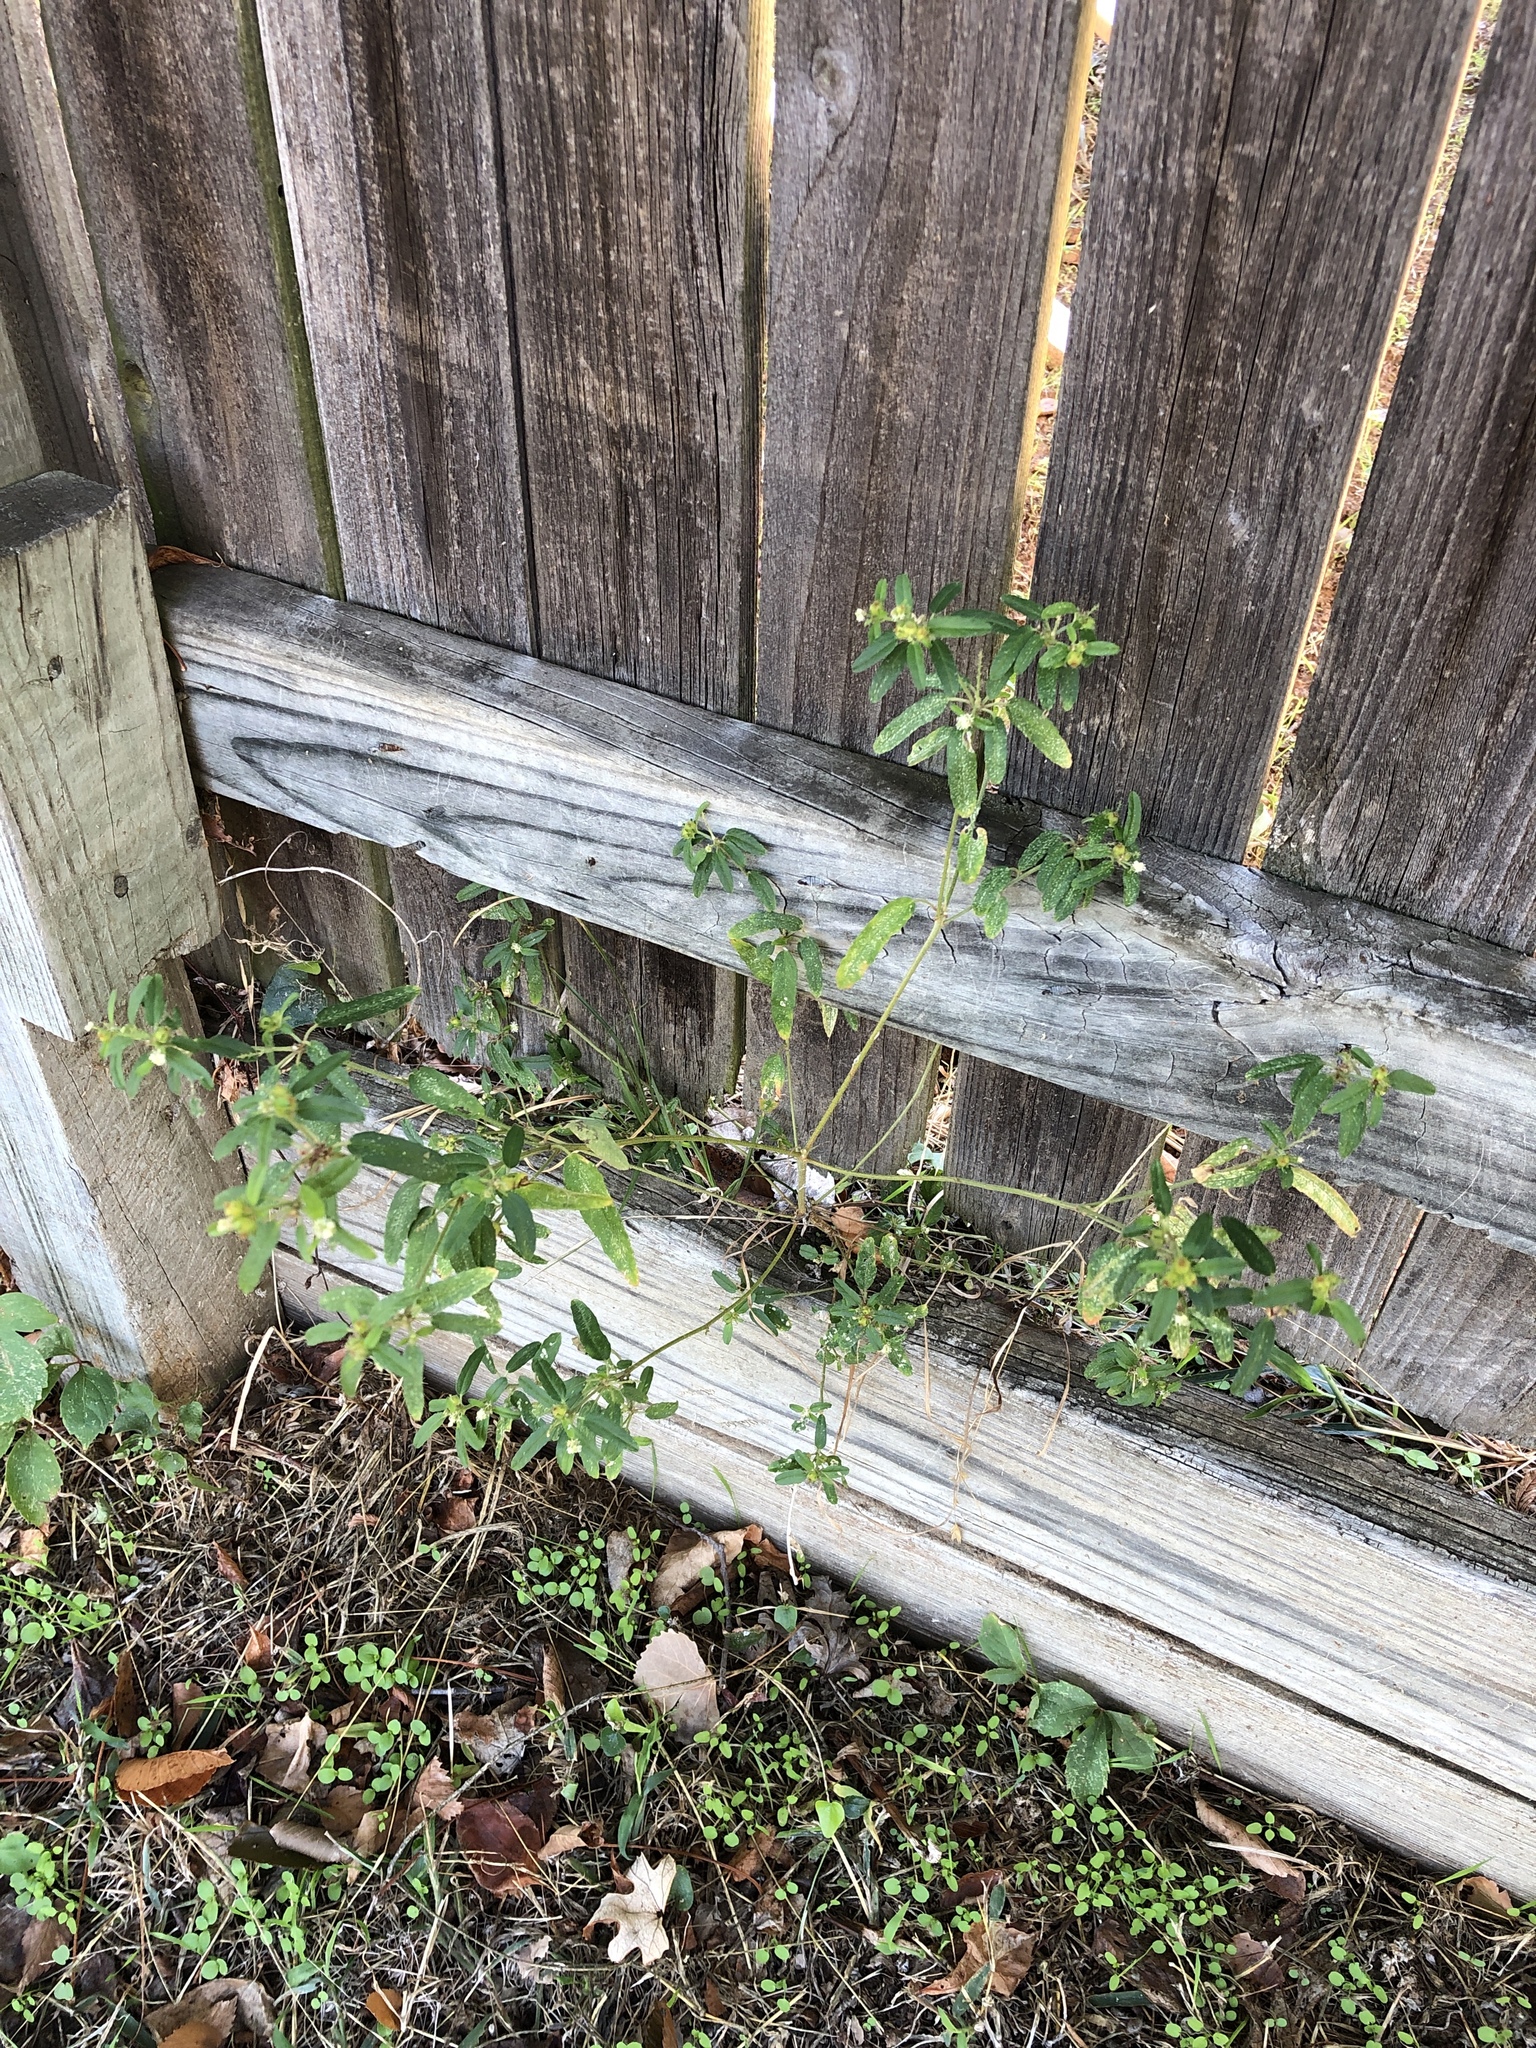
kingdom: Plantae
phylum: Tracheophyta
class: Magnoliopsida
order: Malpighiales
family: Euphorbiaceae
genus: Croton
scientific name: Croton glandulosus
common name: Tropic croton
